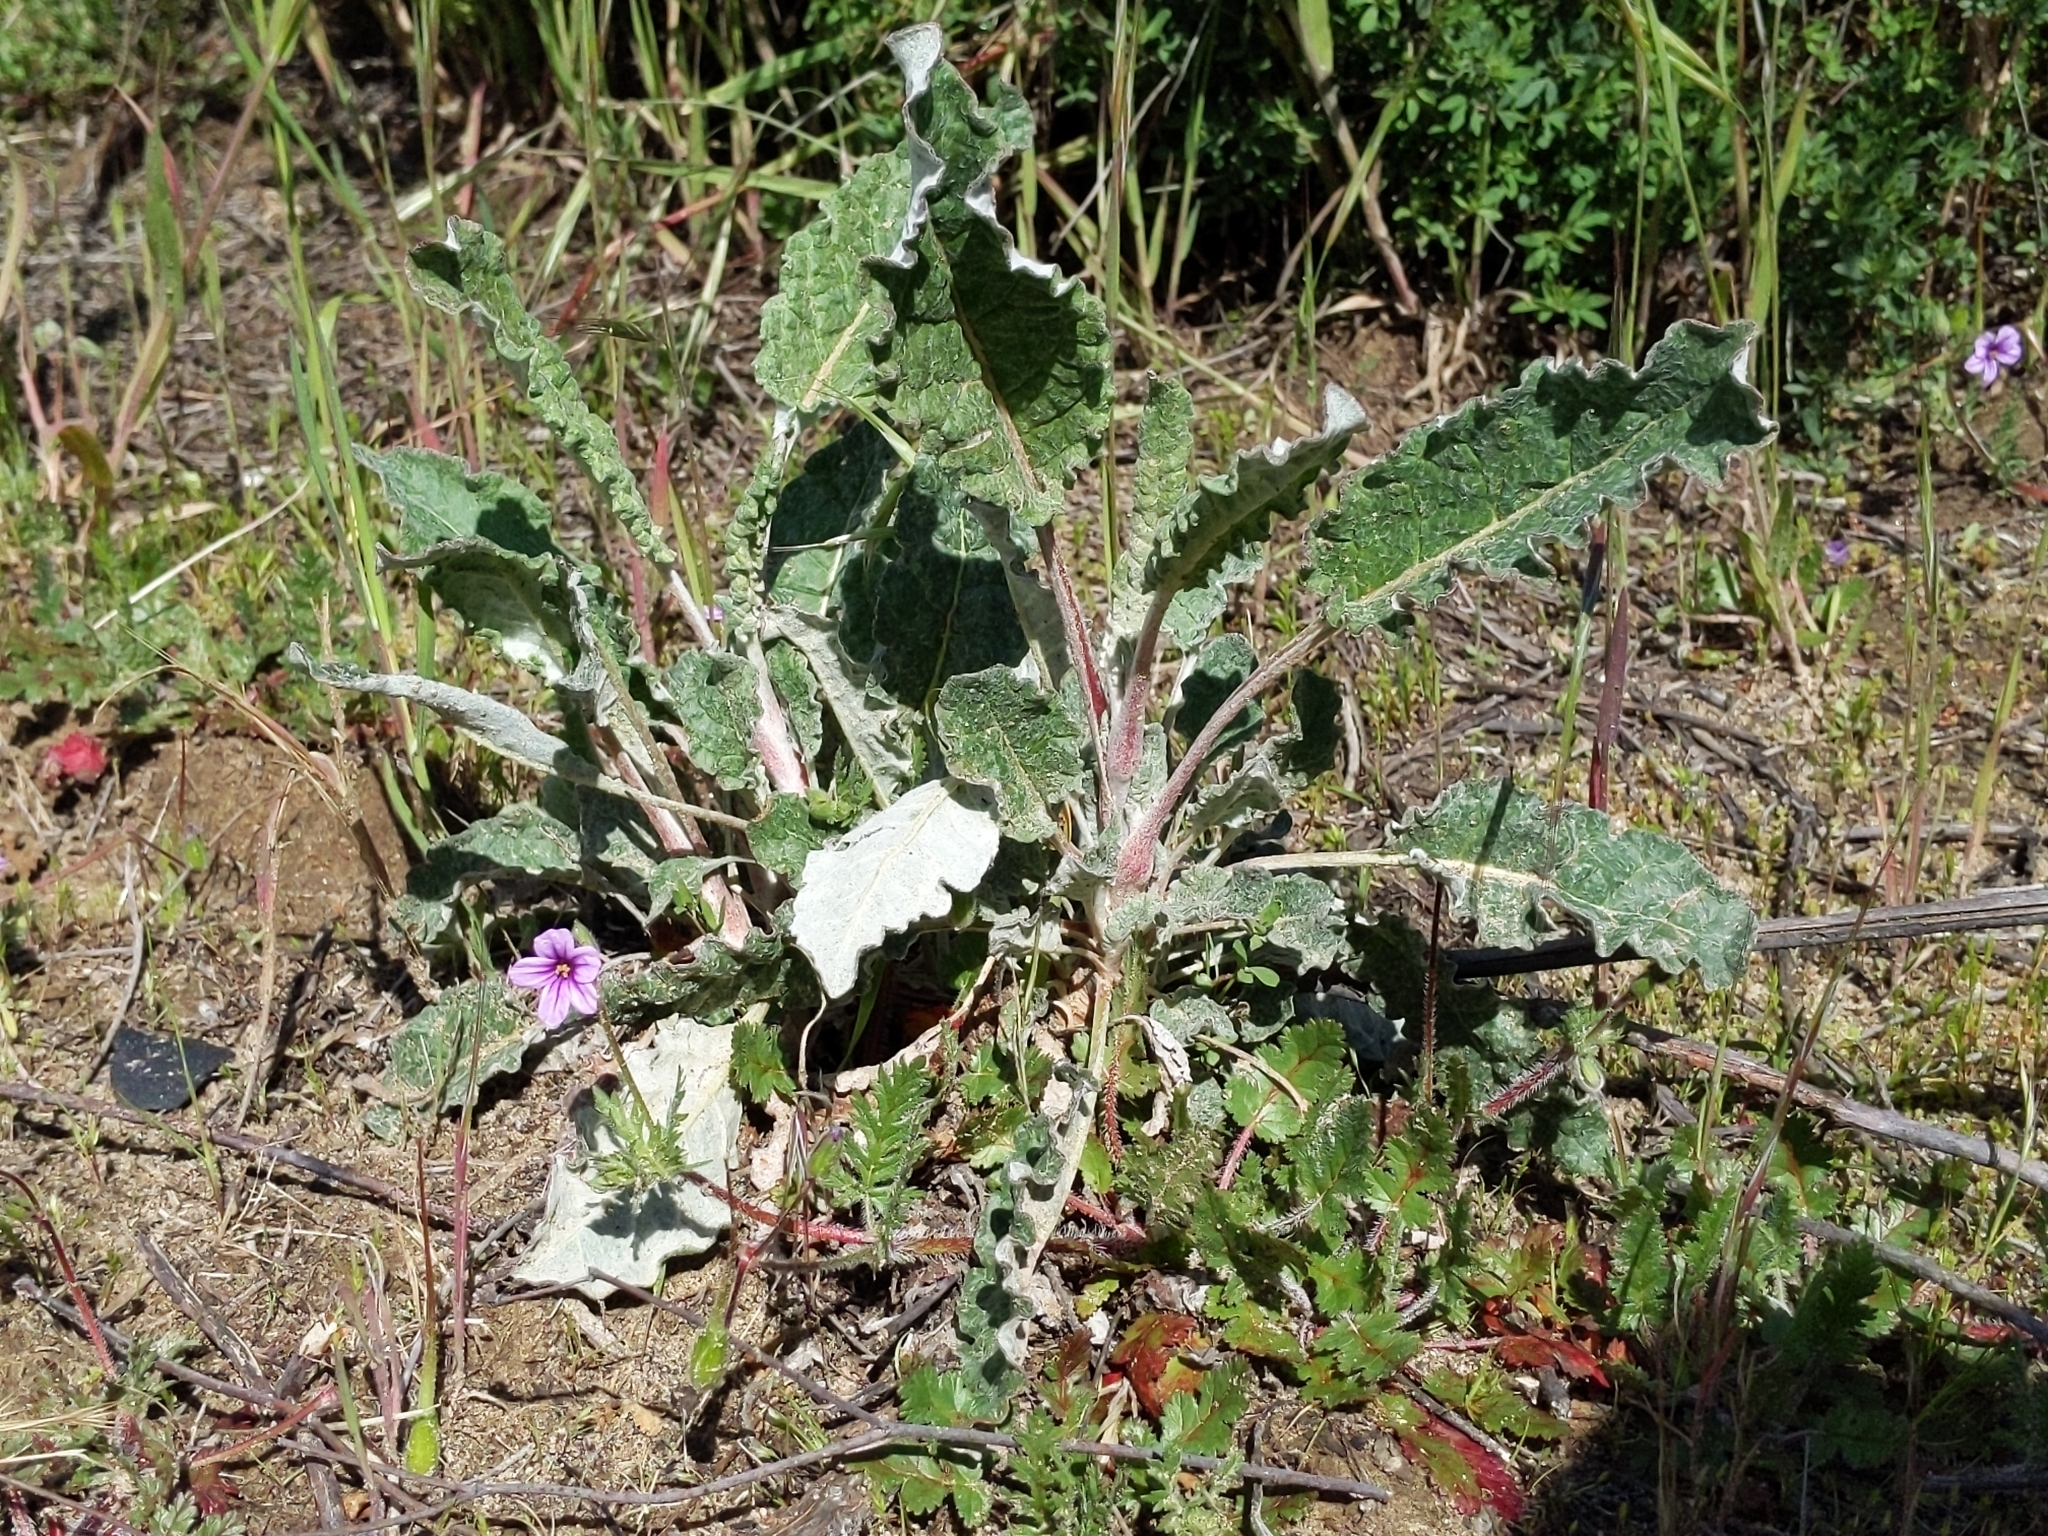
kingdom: Plantae
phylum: Tracheophyta
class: Magnoliopsida
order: Caryophyllales
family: Polygonaceae
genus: Eriogonum
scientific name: Eriogonum nudum
